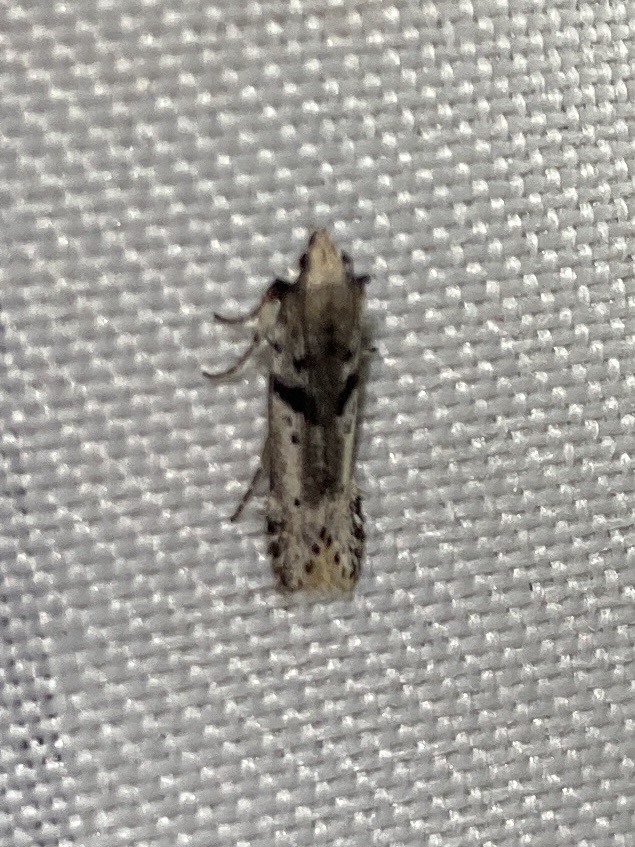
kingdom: Animalia
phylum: Arthropoda
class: Insecta
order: Lepidoptera
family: Gelechiidae
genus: Aristotelia
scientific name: Aristotelia paradesma
